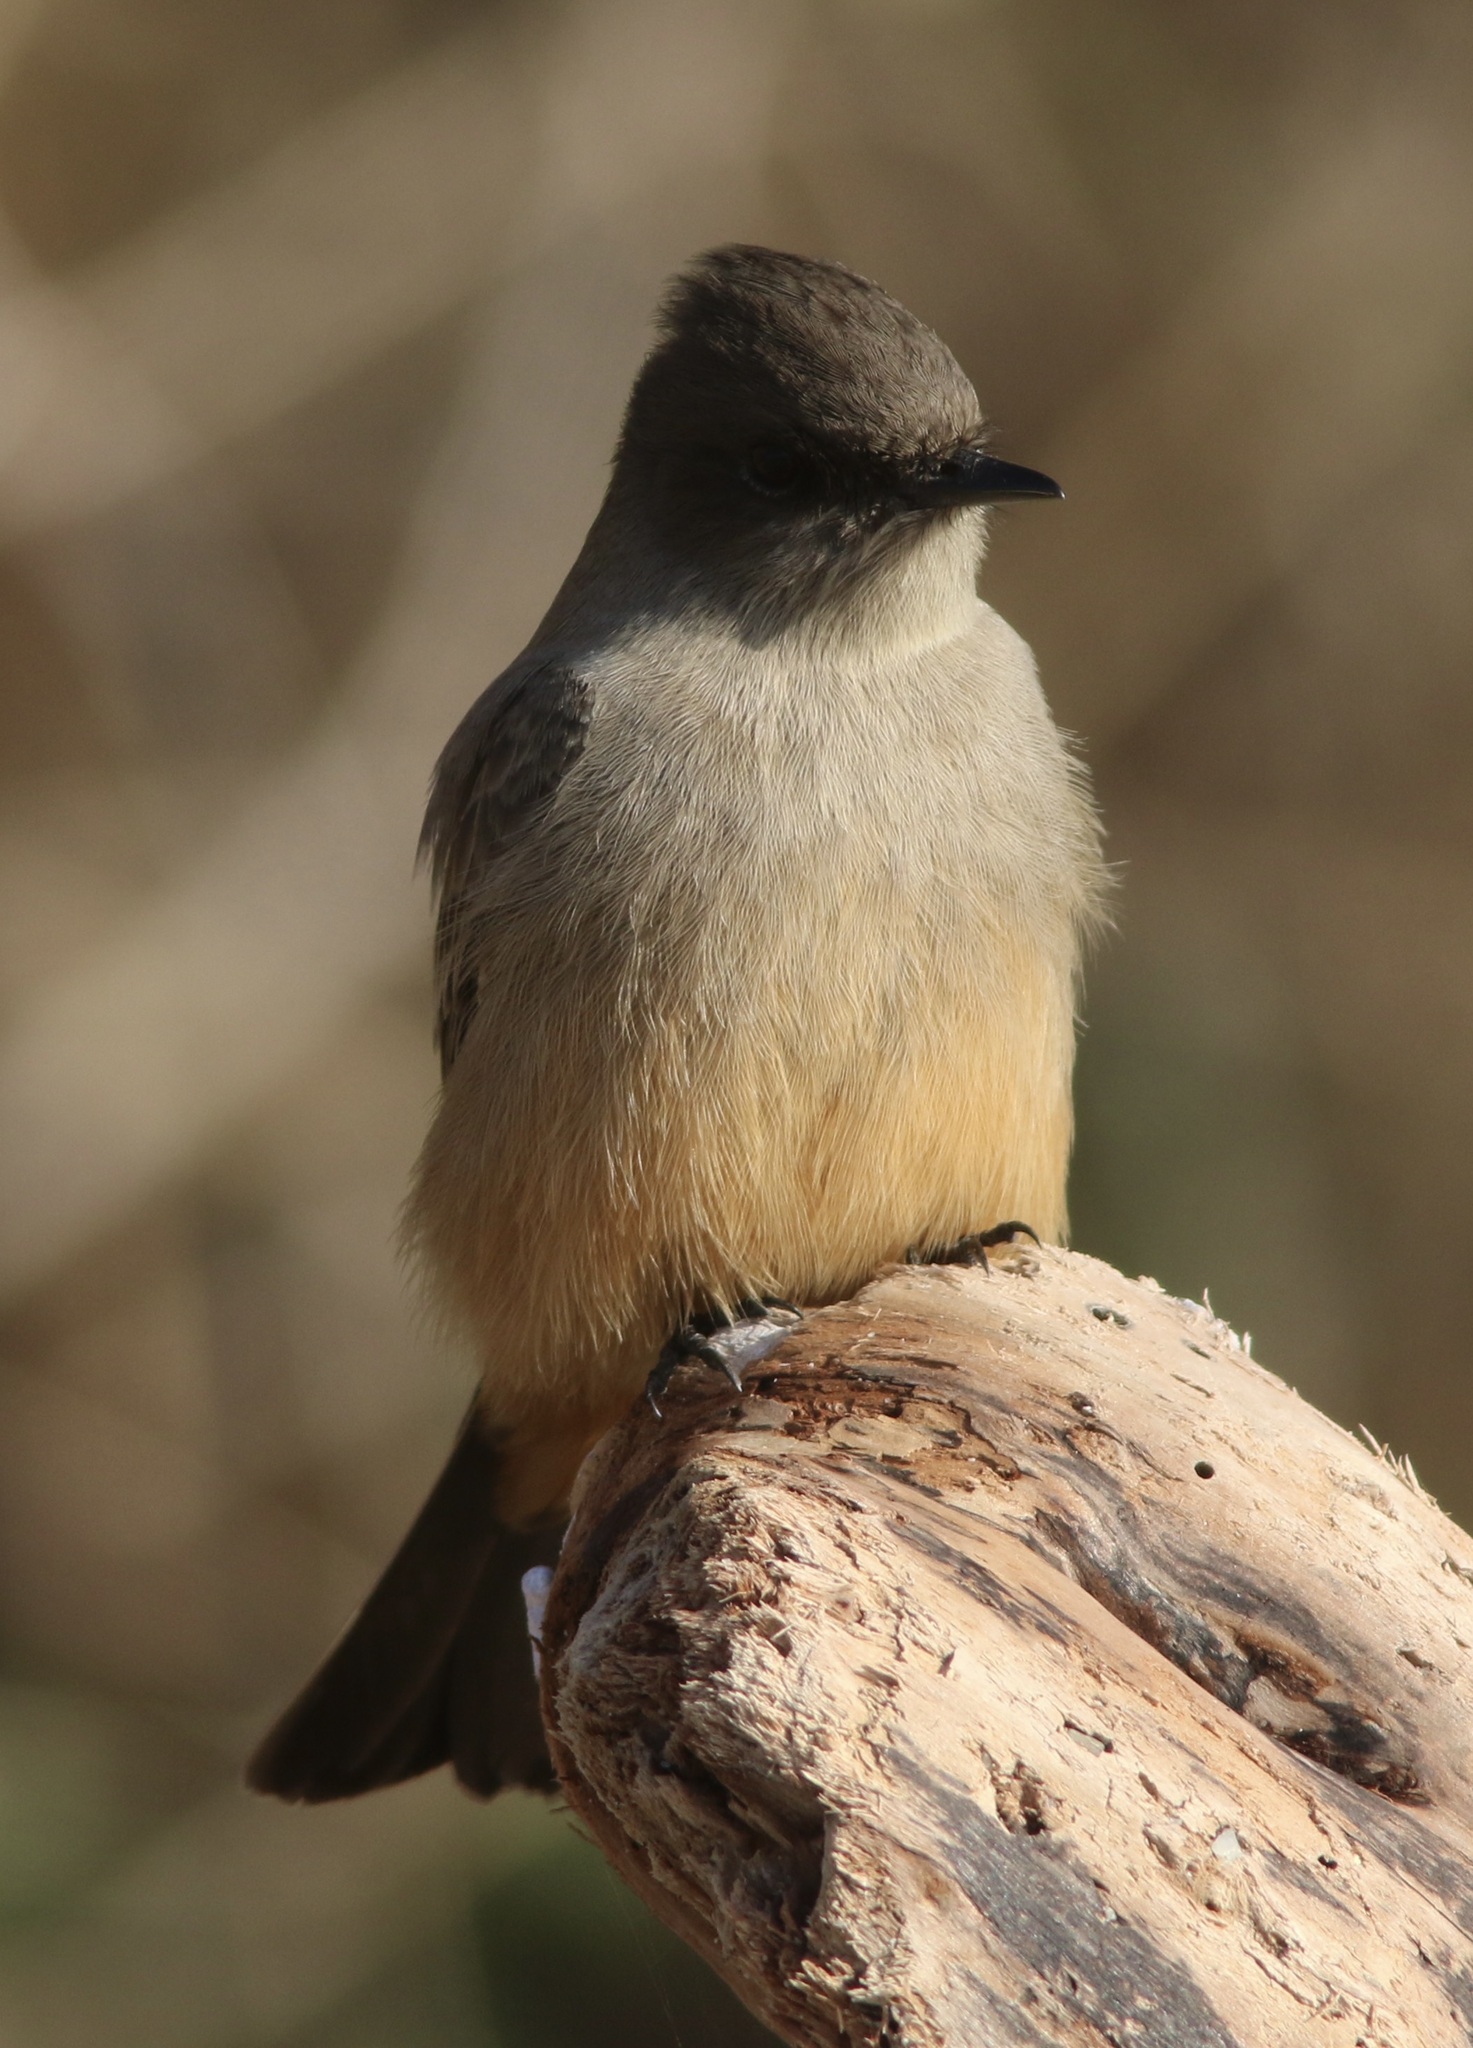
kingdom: Animalia
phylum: Chordata
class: Aves
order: Passeriformes
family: Tyrannidae
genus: Sayornis
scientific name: Sayornis saya
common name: Say's phoebe
